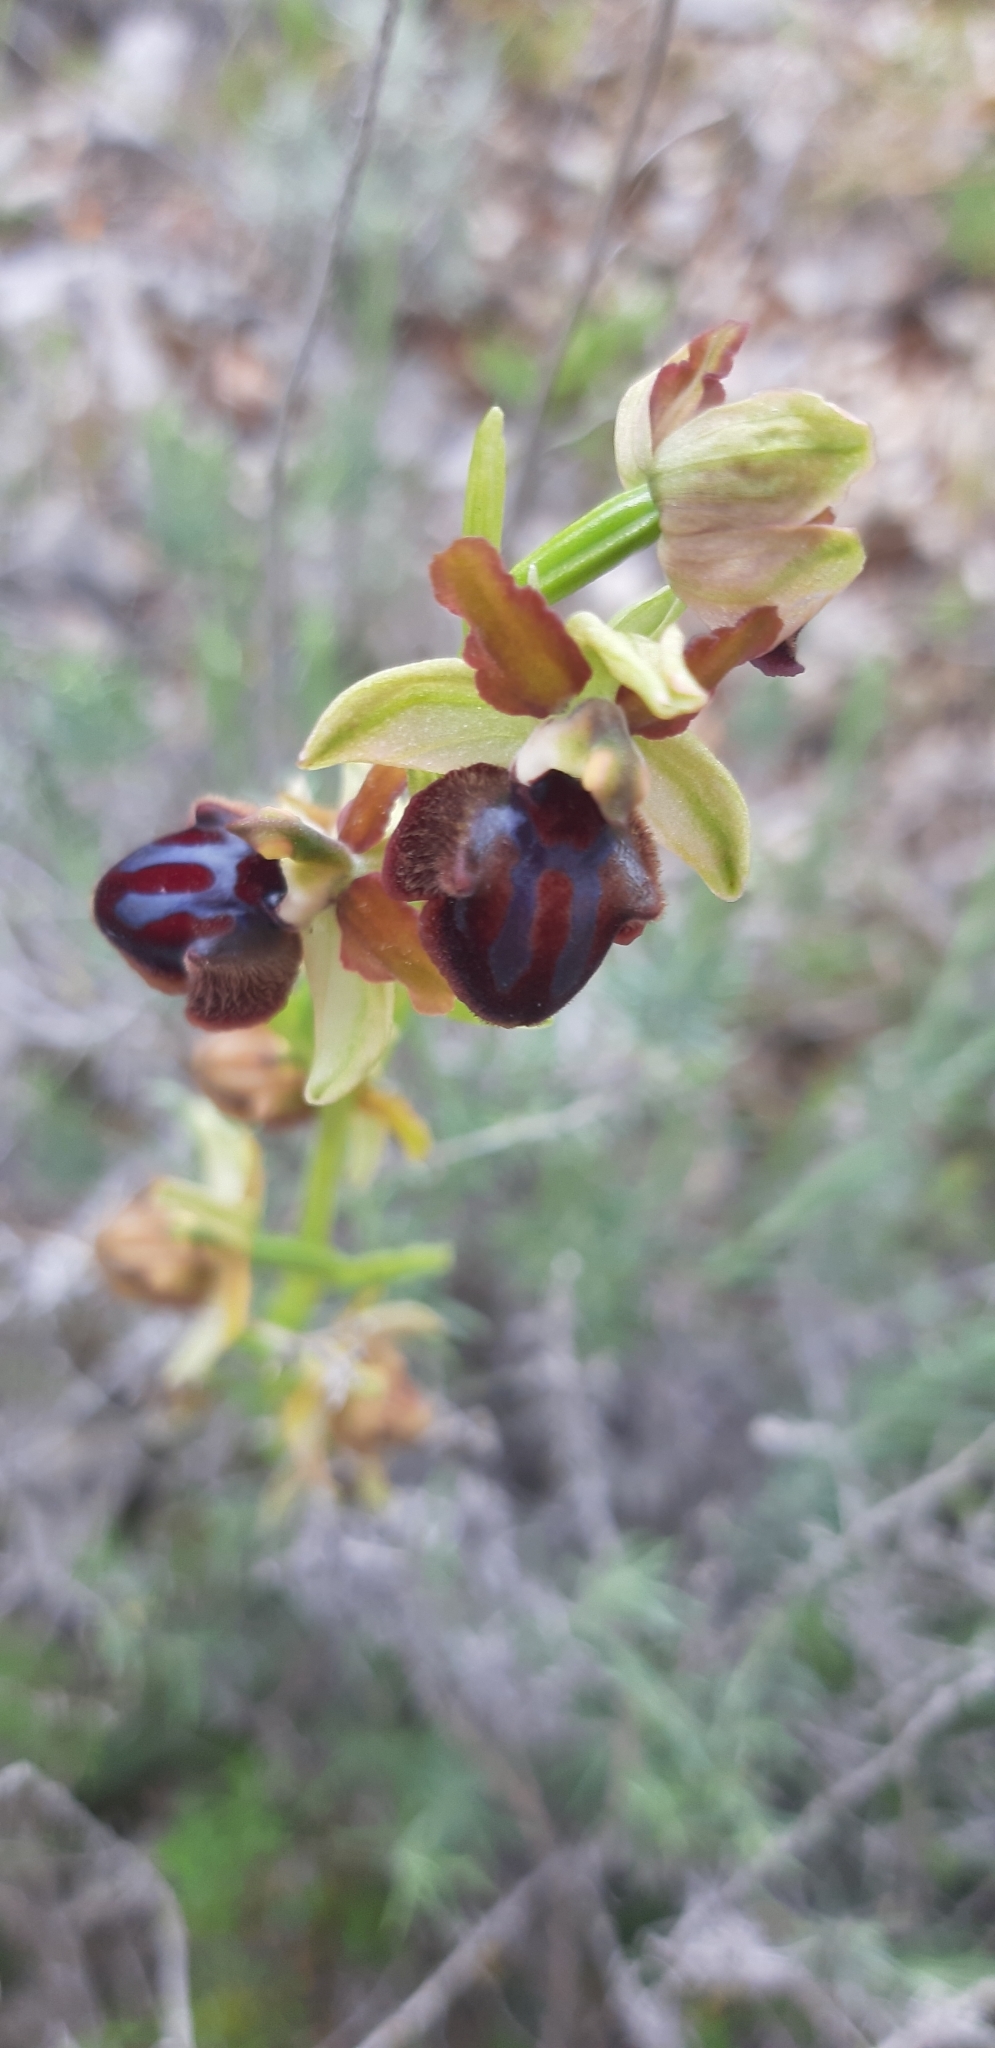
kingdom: Plantae
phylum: Tracheophyta
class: Liliopsida
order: Asparagales
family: Orchidaceae
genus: Ophrys
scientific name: Ophrys sphegodes
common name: Early spider-orchid
